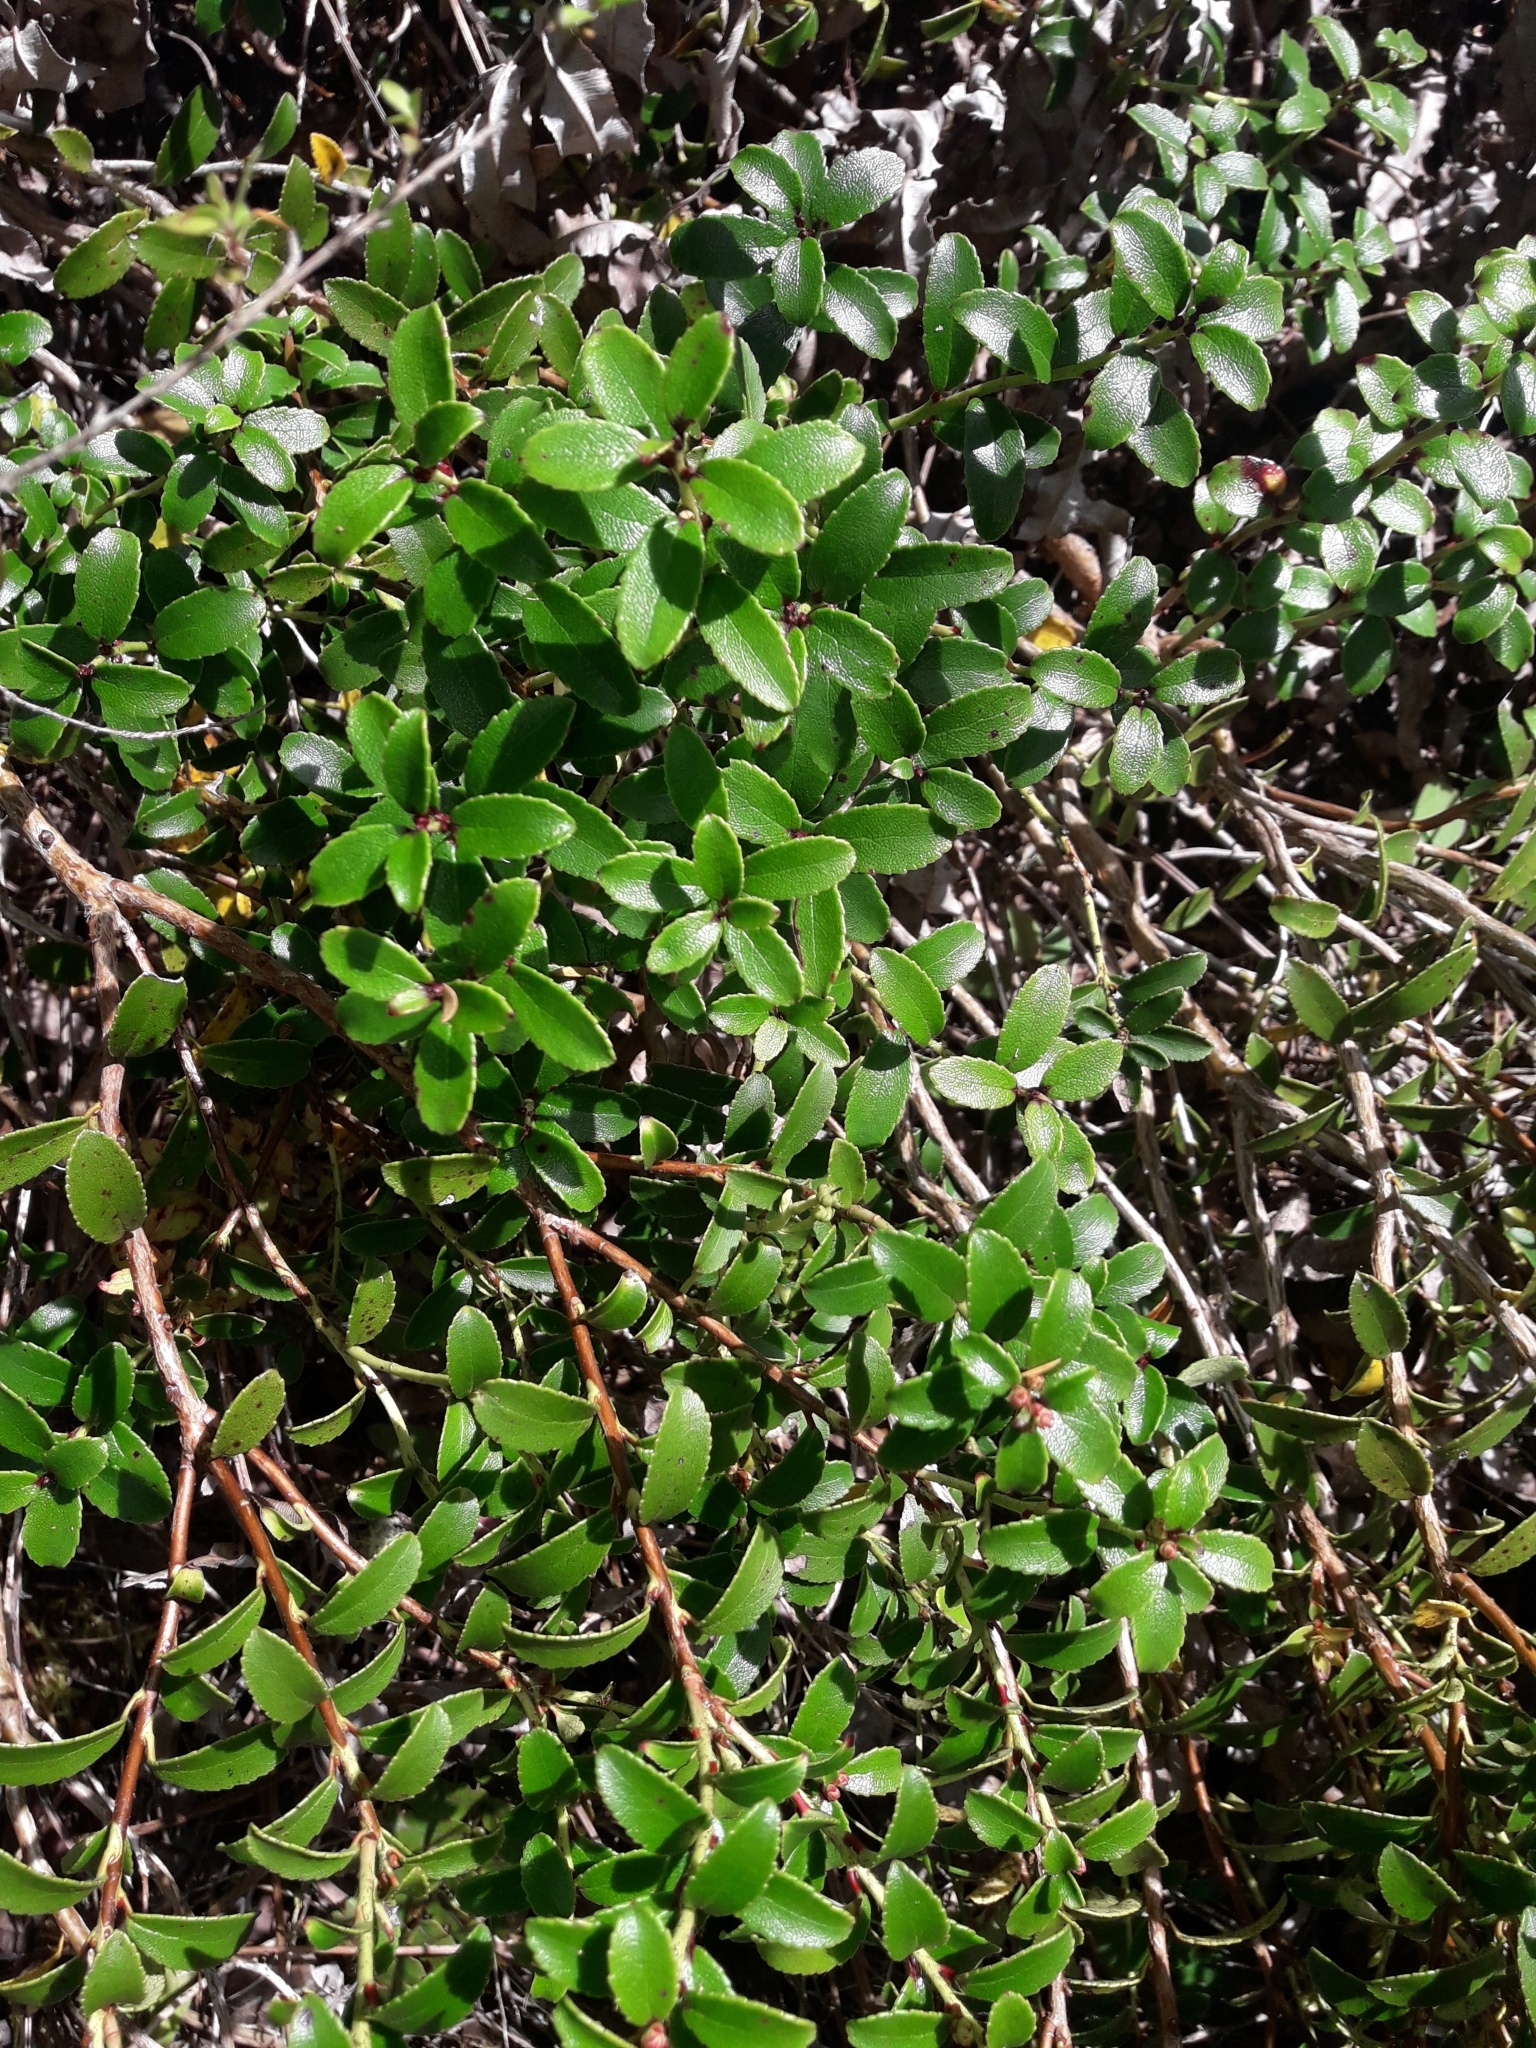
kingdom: Plantae
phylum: Tracheophyta
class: Magnoliopsida
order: Ericales
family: Ericaceae
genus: Gaultheria
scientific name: Gaultheria crassa
